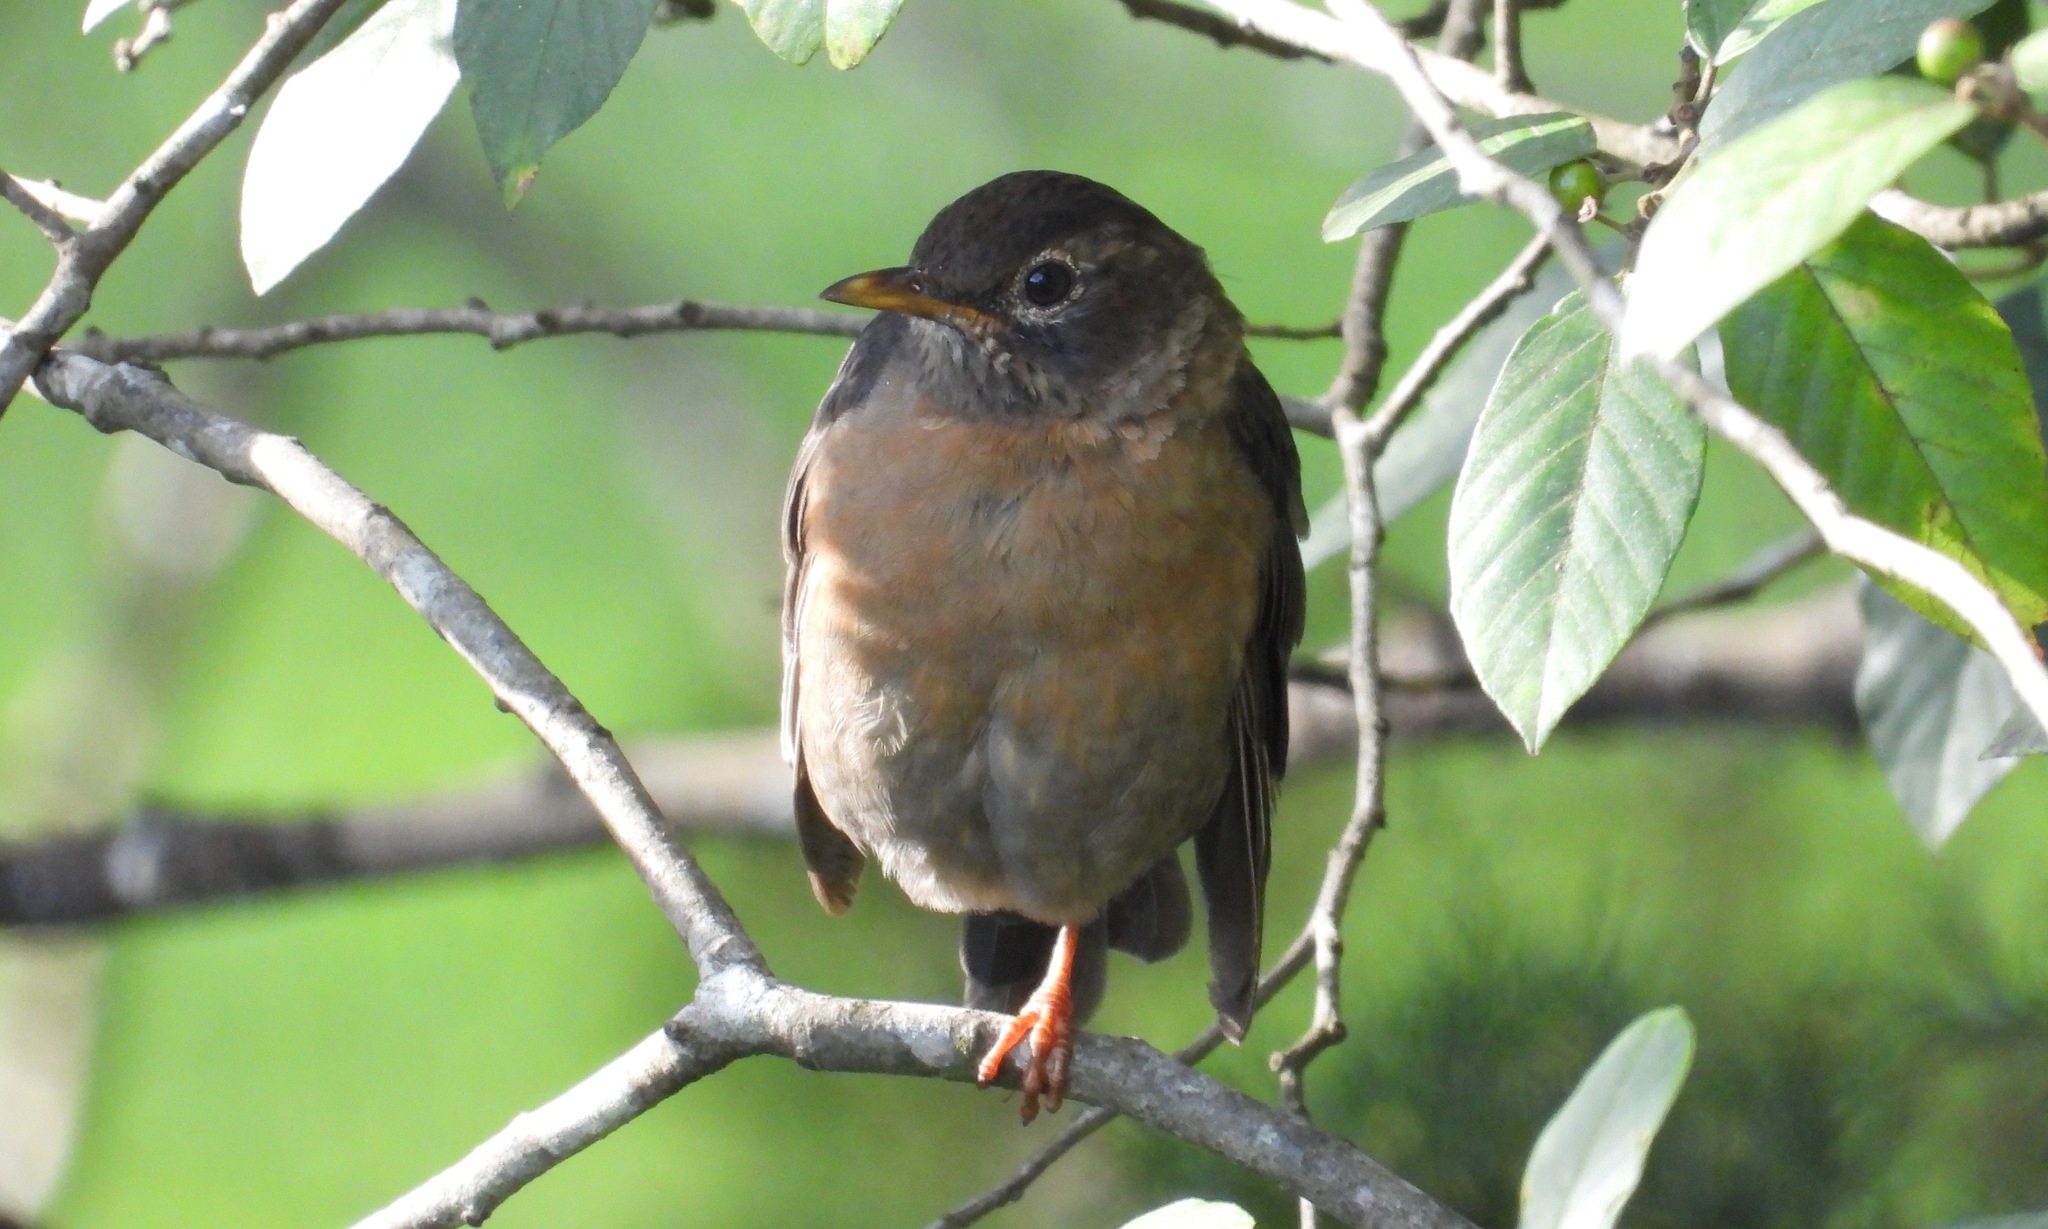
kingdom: Animalia
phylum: Chordata
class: Aves
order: Passeriformes
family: Turdidae
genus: Turdus
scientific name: Turdus rufitorques
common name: Rufous-collared thrush
